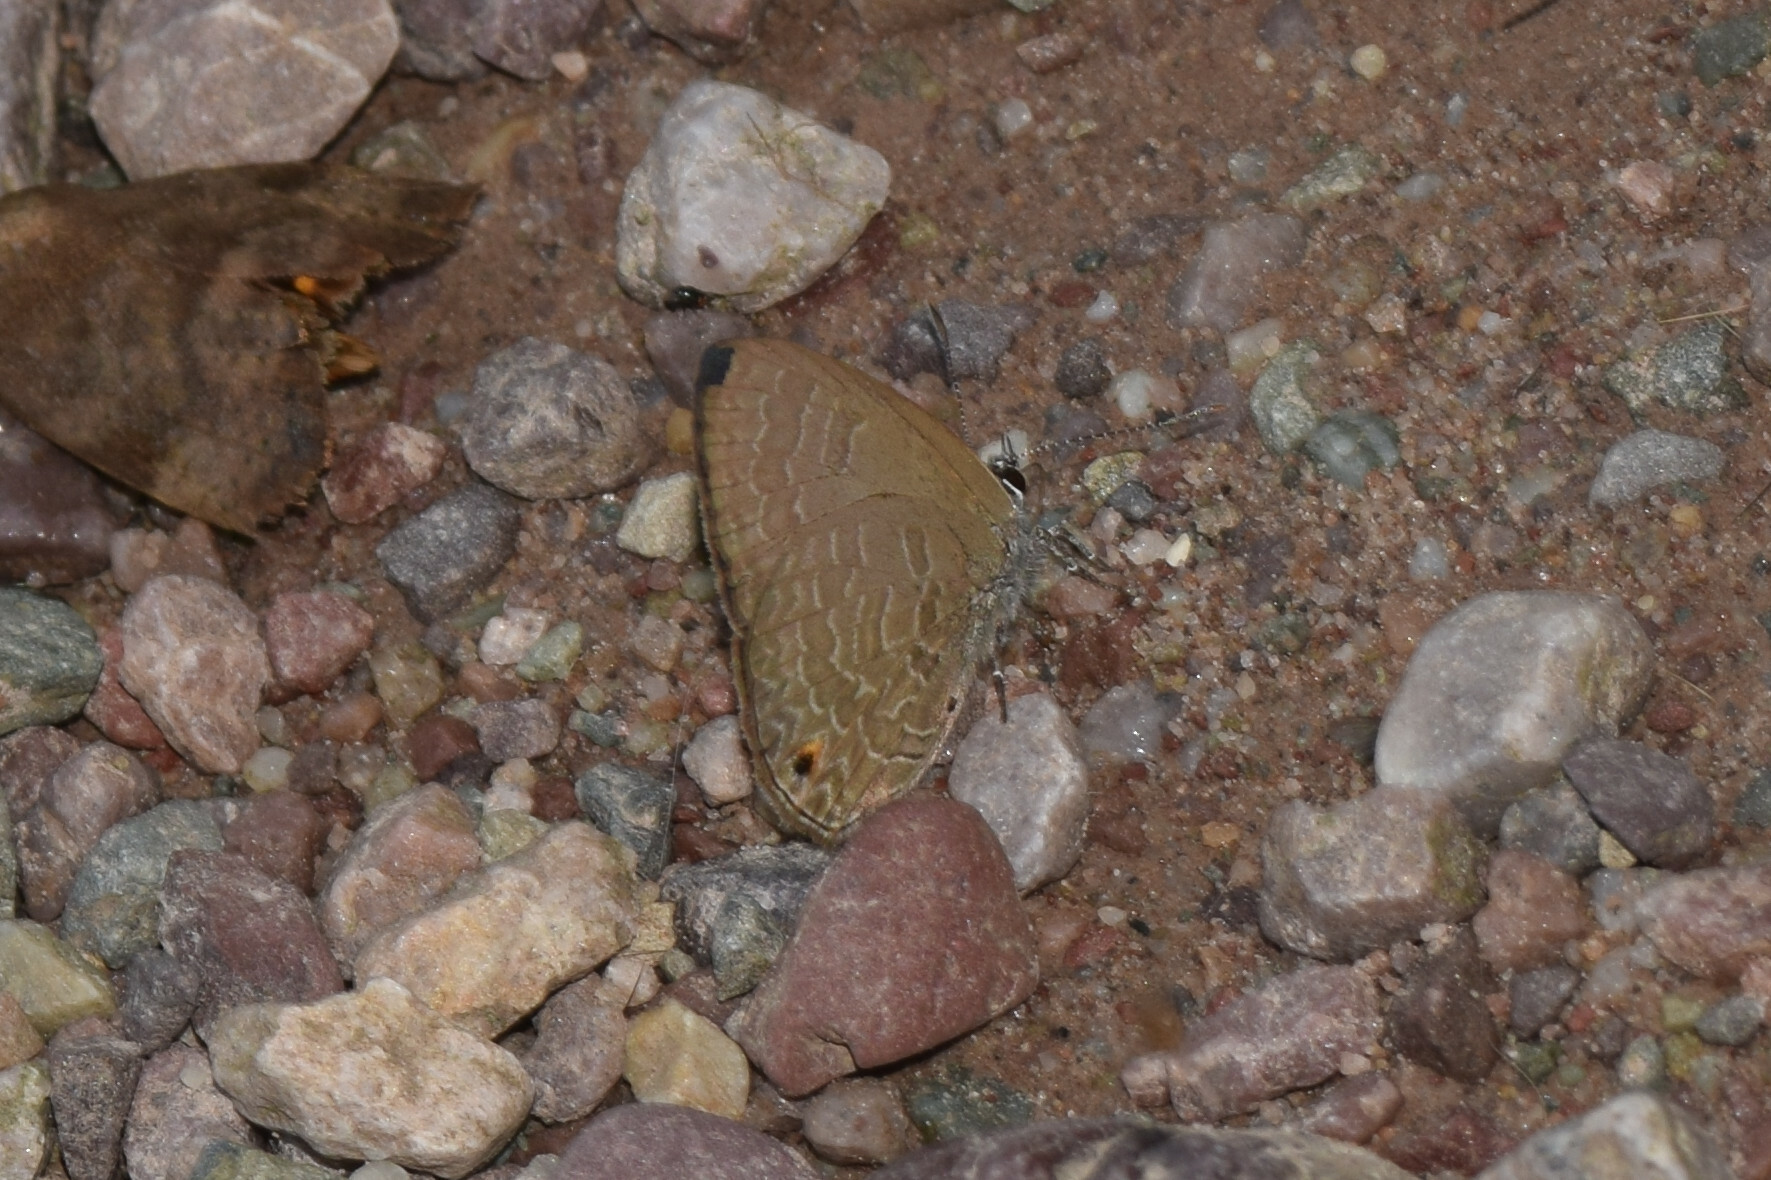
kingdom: Animalia
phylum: Arthropoda
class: Insecta
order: Lepidoptera
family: Lycaenidae
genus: Anthene
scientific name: Anthene emolus
